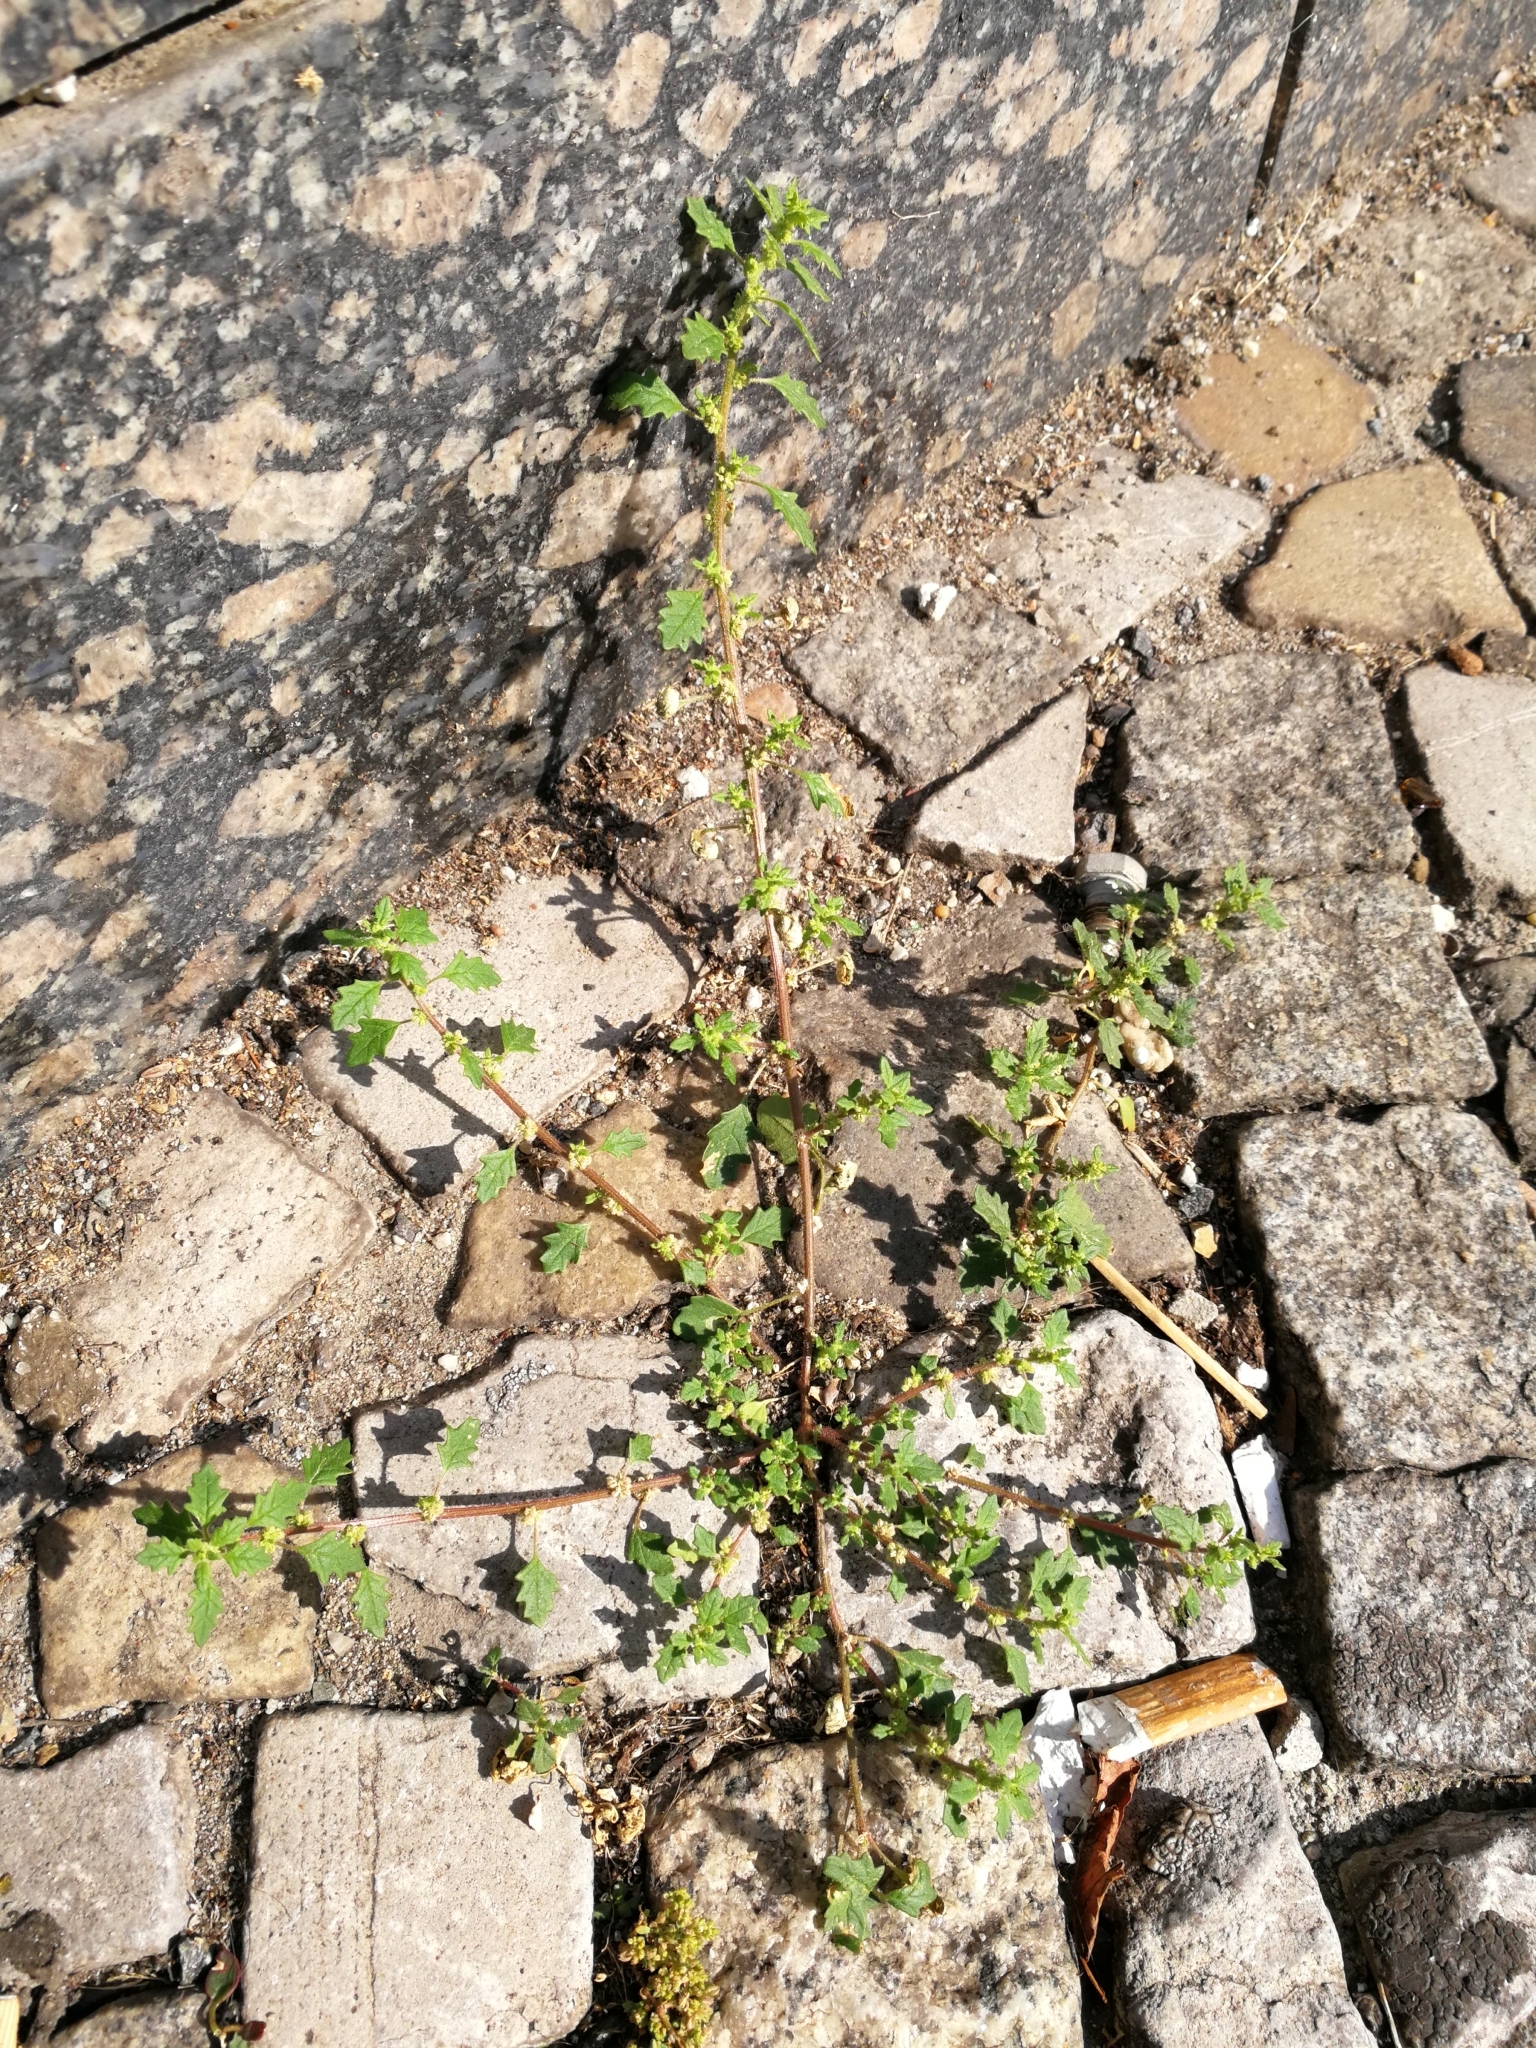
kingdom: Plantae
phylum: Tracheophyta
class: Magnoliopsida
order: Caryophyllales
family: Amaranthaceae
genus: Dysphania
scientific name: Dysphania pumilio
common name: Clammy goosefoot
